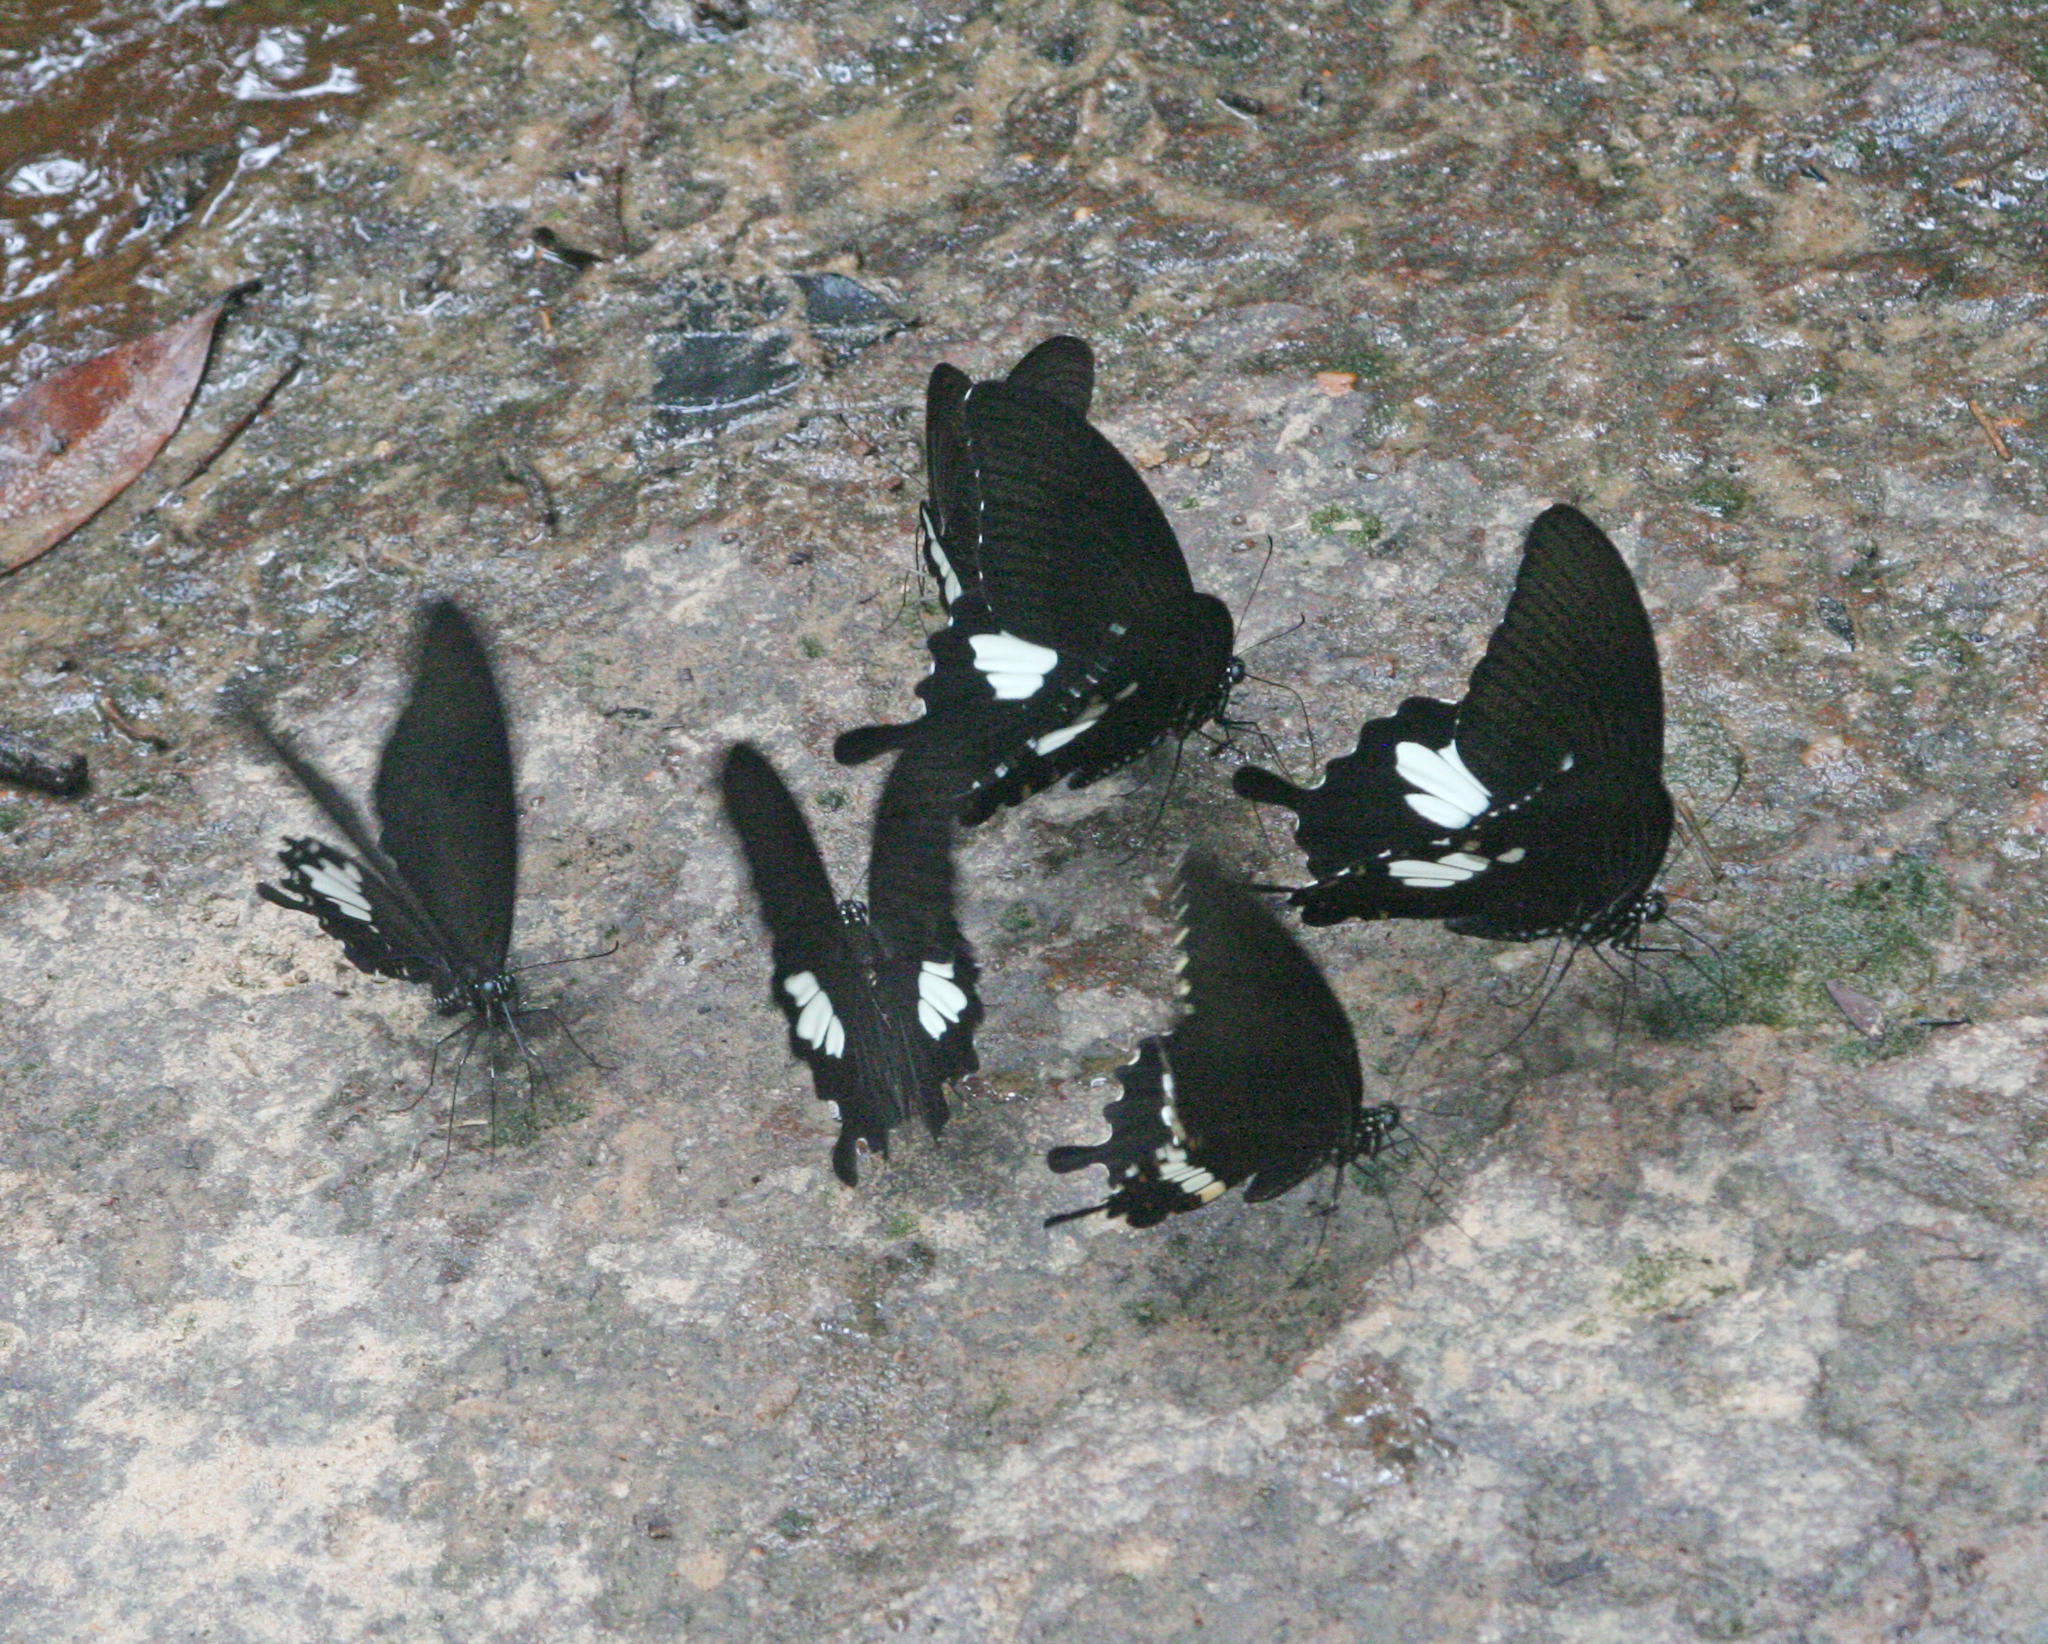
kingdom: Animalia
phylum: Arthropoda
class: Insecta
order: Lepidoptera
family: Papilionidae
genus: Atrophaneura
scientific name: Atrophaneura varuna
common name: Common batwing
